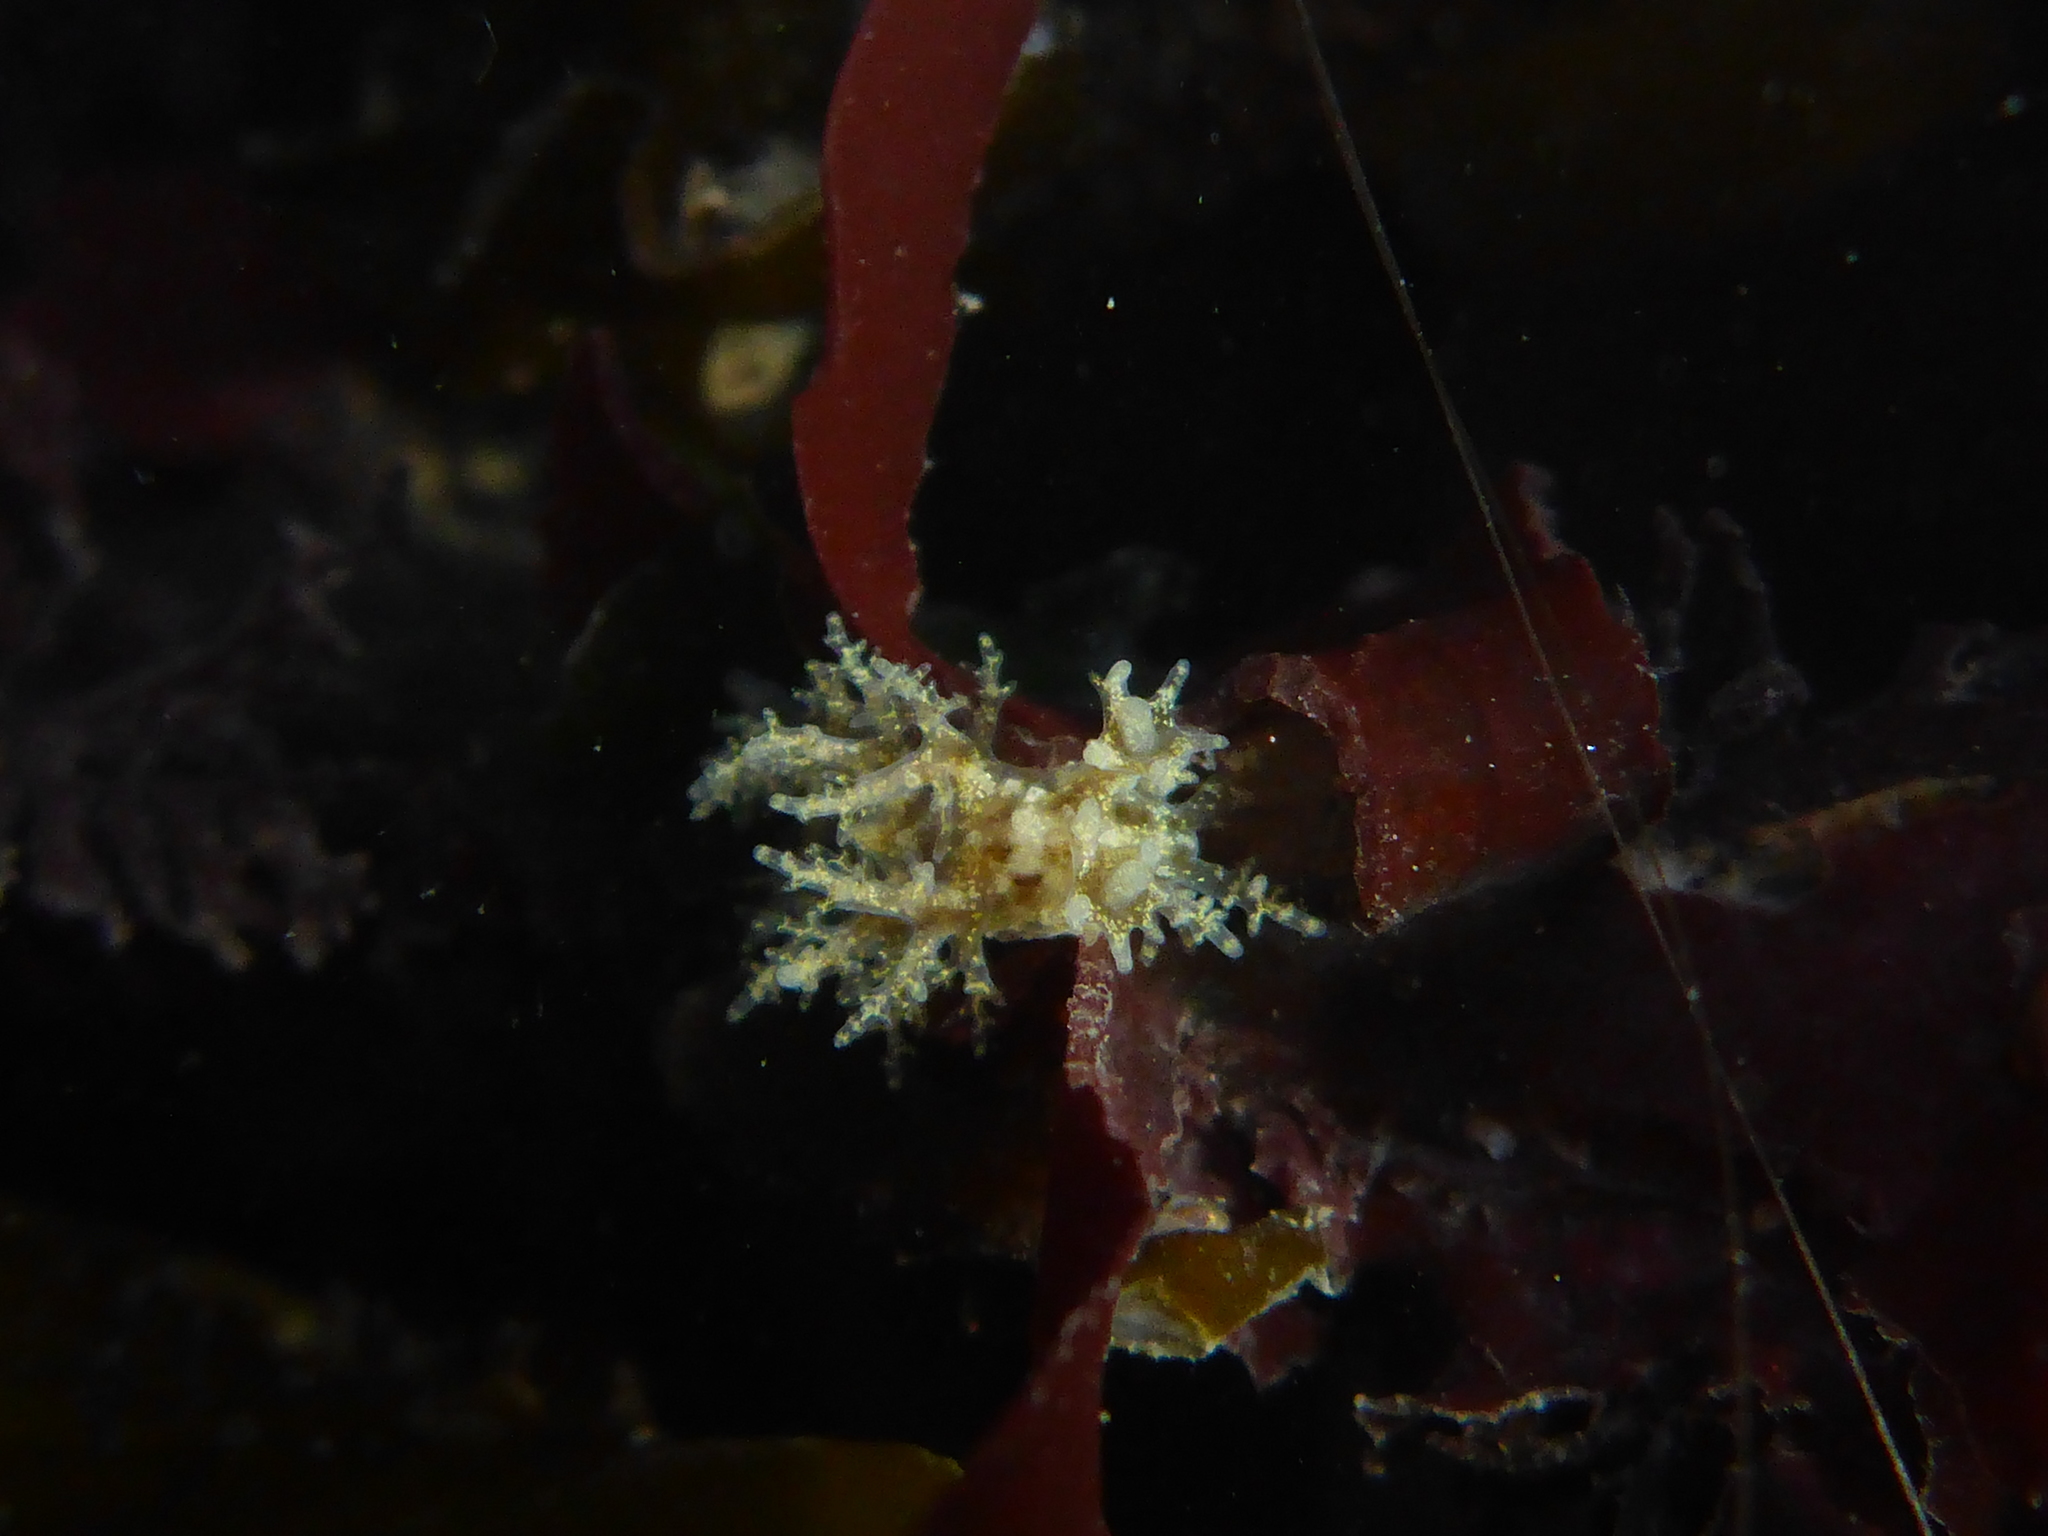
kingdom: Animalia
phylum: Mollusca
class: Gastropoda
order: Nudibranchia
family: Dendronotidae
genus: Dendronotus
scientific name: Dendronotus venustus
